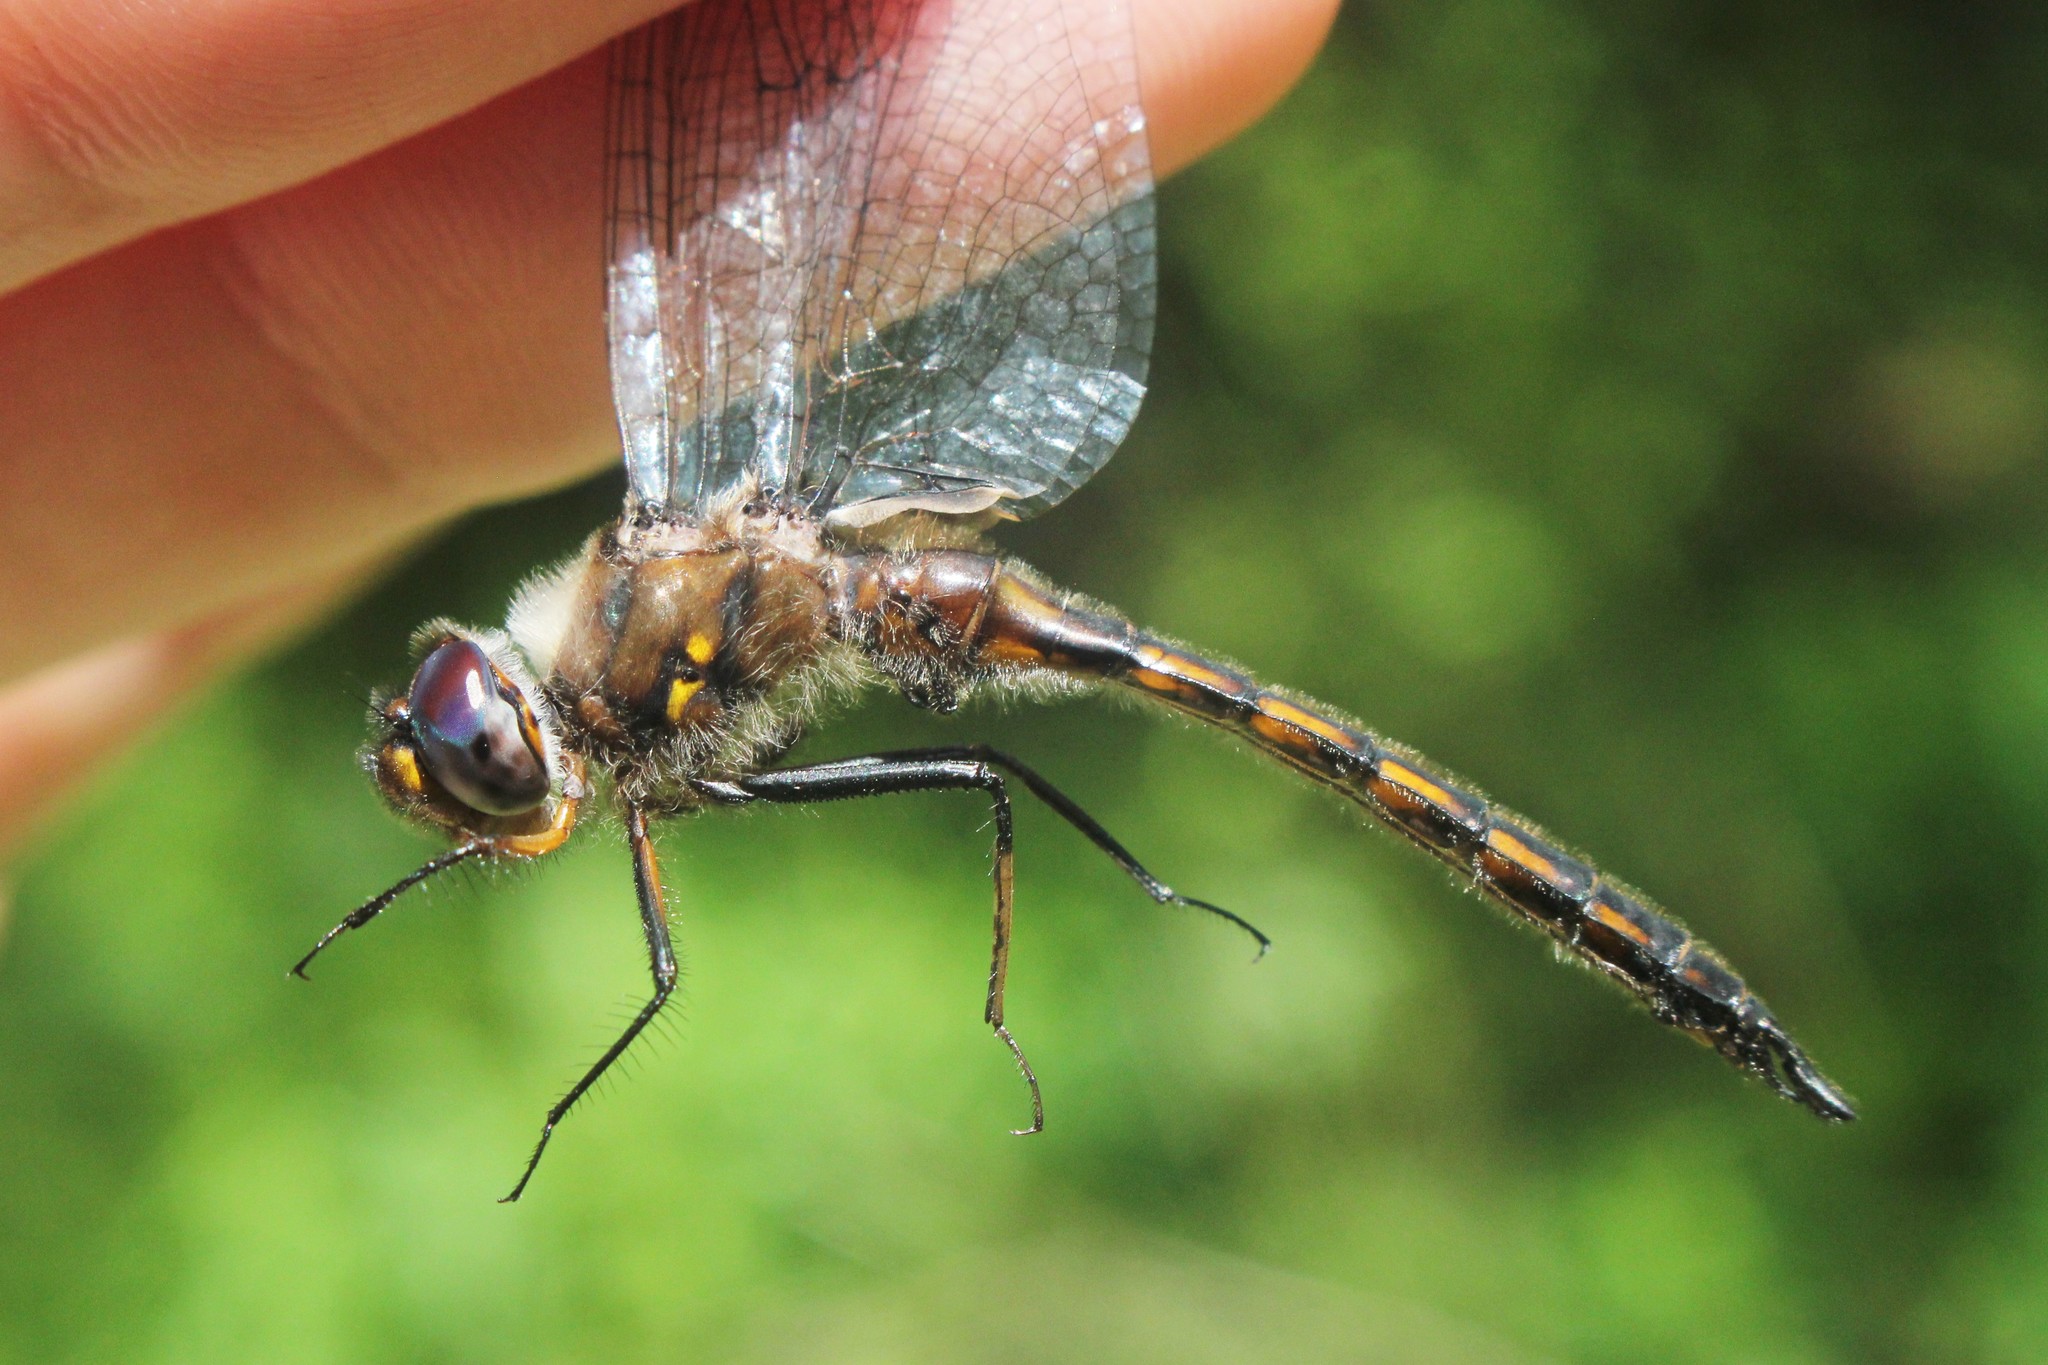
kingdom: Animalia
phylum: Arthropoda
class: Insecta
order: Odonata
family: Corduliidae
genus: Epitheca
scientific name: Epitheca cynosura
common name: Common baskettail
